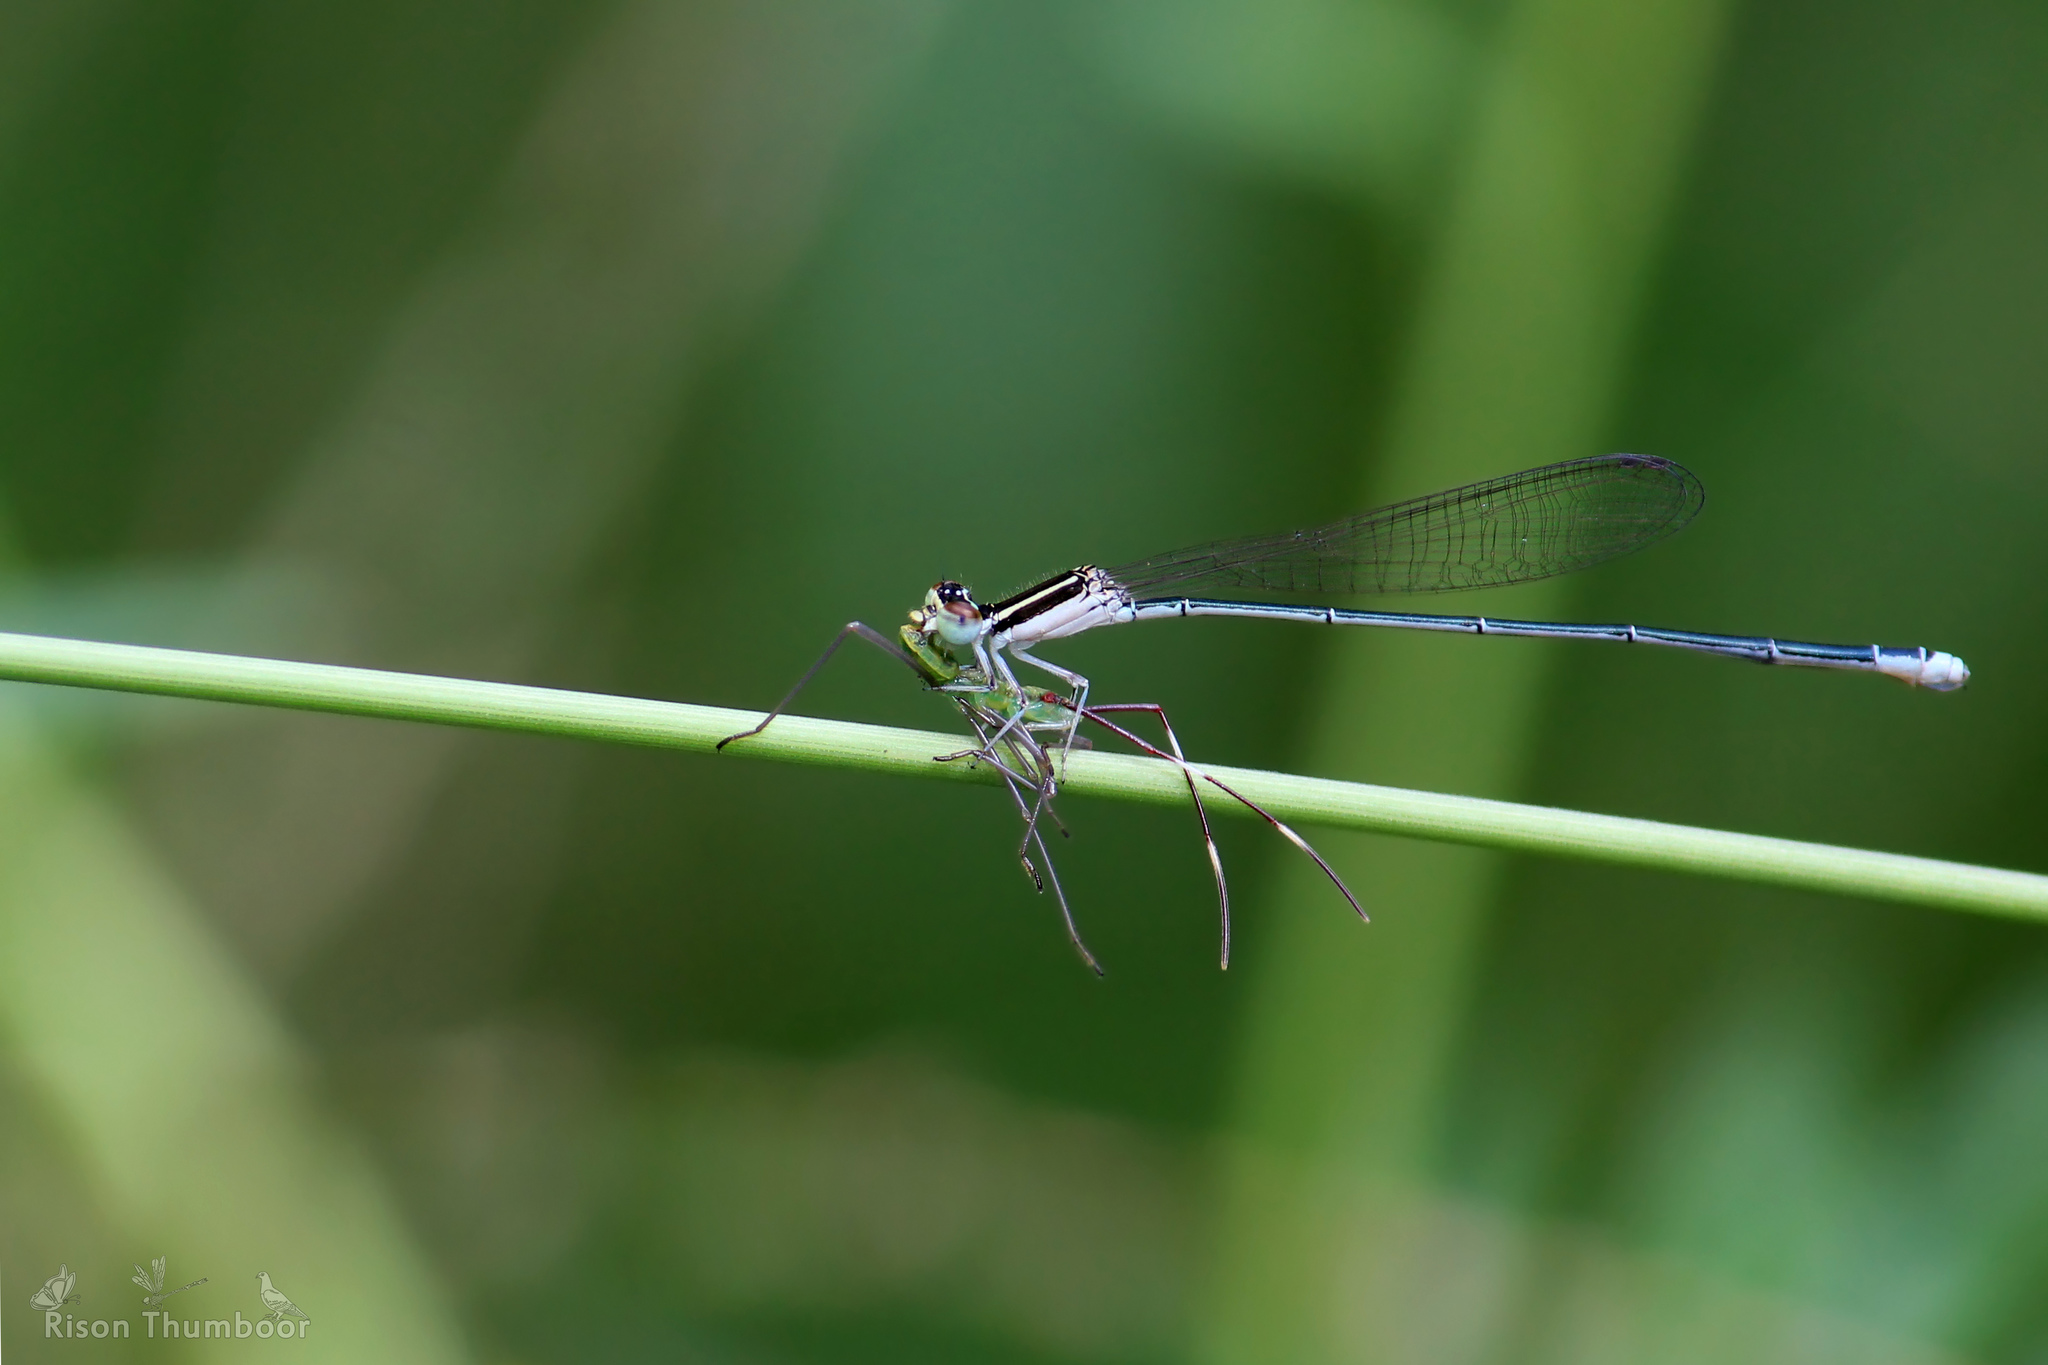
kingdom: Animalia
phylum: Arthropoda
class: Insecta
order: Odonata
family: Coenagrionidae
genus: Aciagrion
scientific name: Aciagrion occidentale
